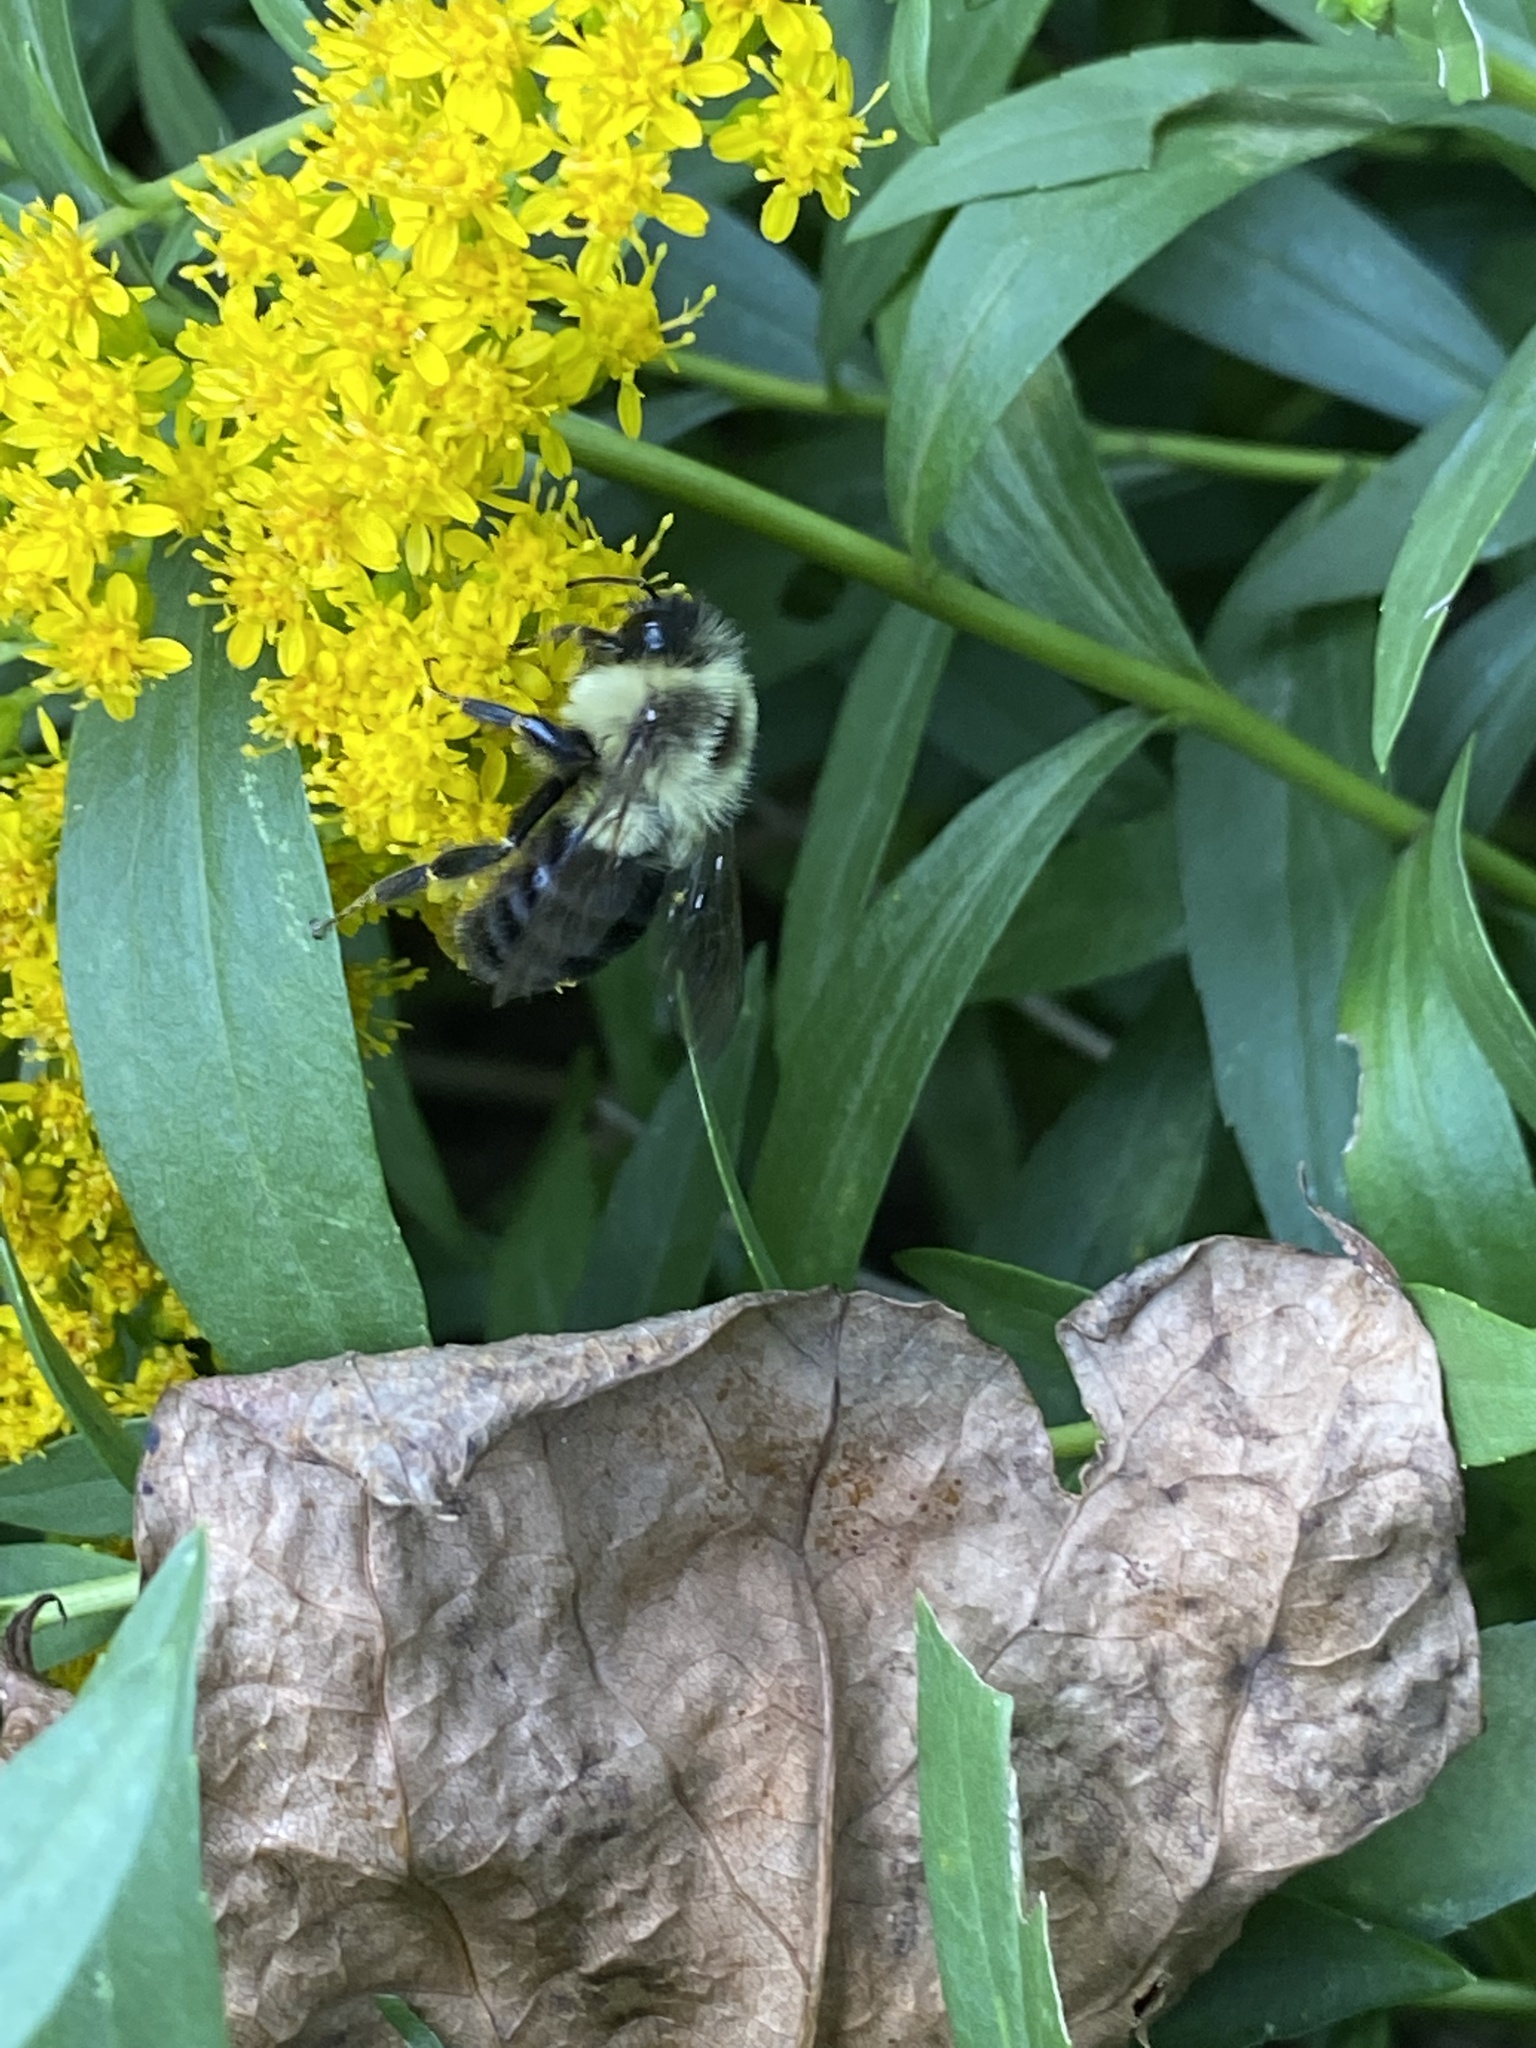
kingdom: Animalia
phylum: Arthropoda
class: Insecta
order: Hymenoptera
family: Apidae
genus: Bombus
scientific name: Bombus impatiens
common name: Common eastern bumble bee
